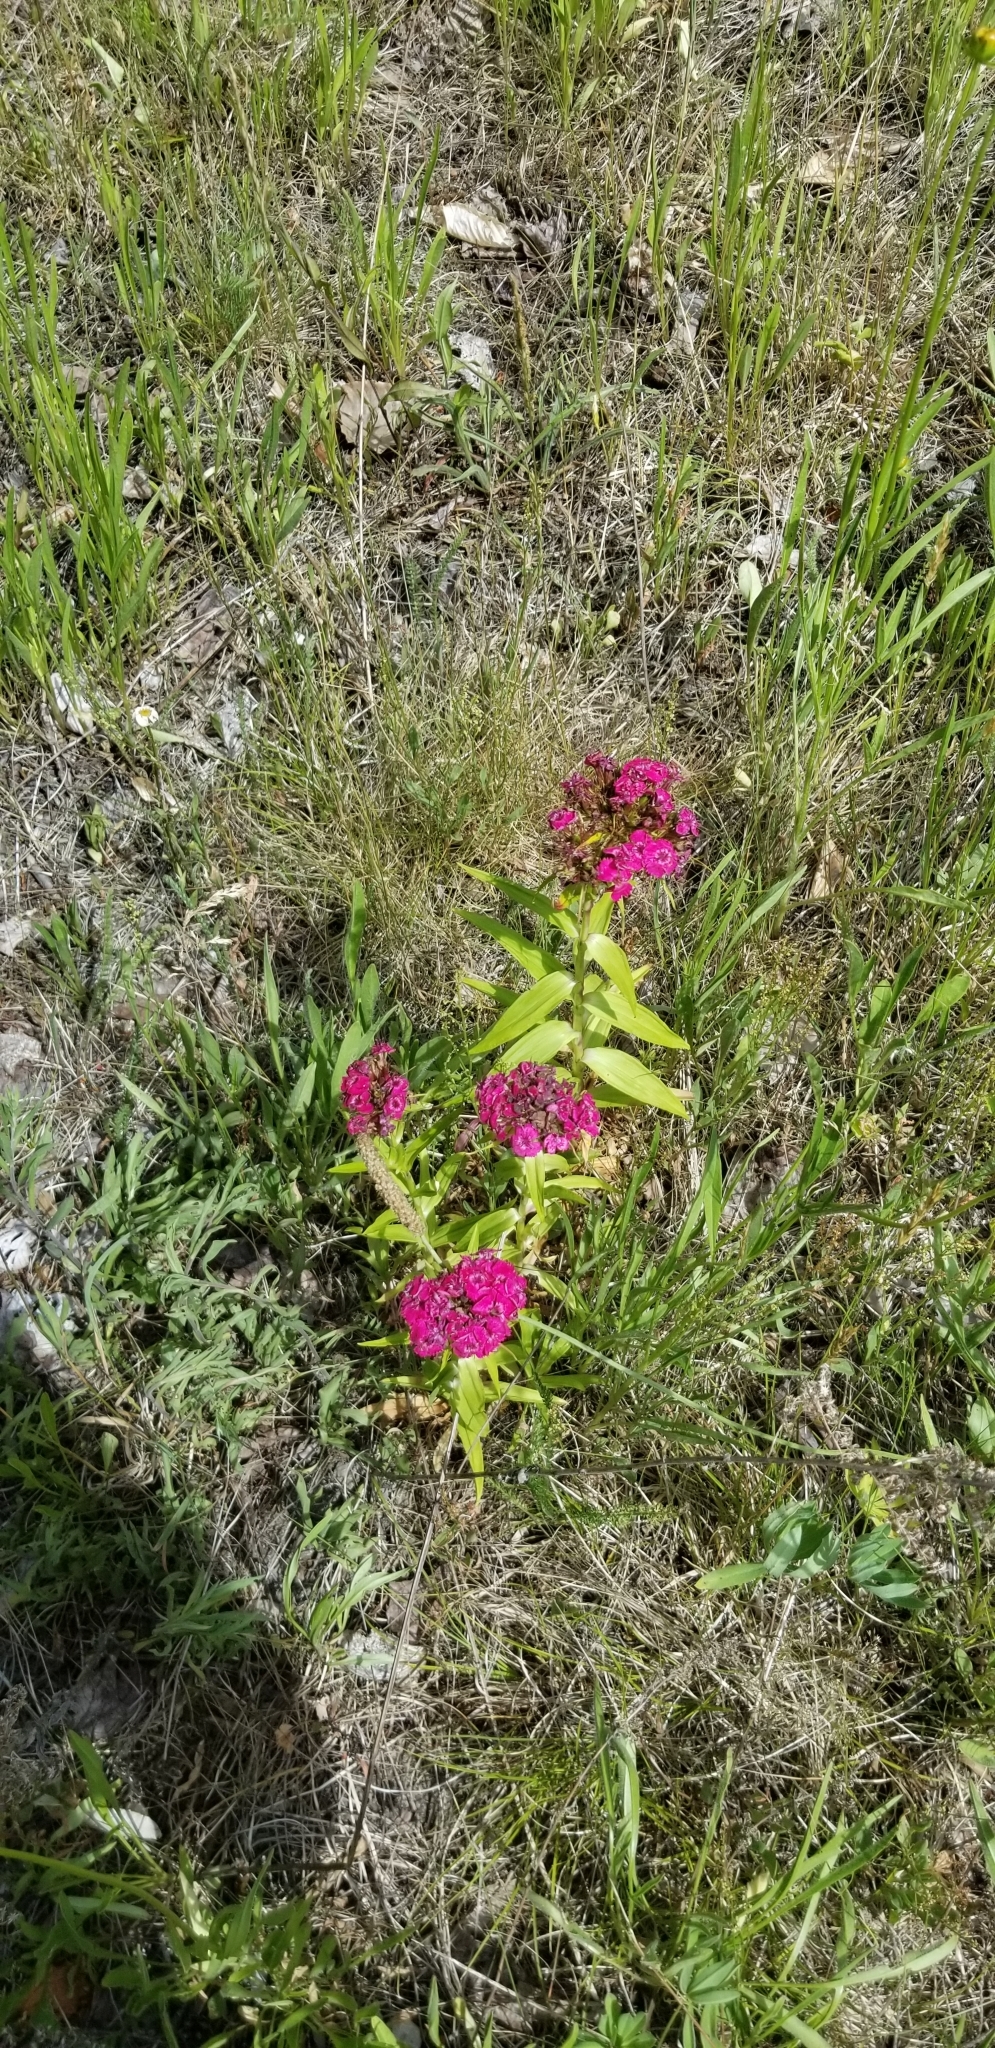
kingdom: Plantae
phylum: Tracheophyta
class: Magnoliopsida
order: Caryophyllales
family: Caryophyllaceae
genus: Dianthus
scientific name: Dianthus barbatus
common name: Sweet-william
